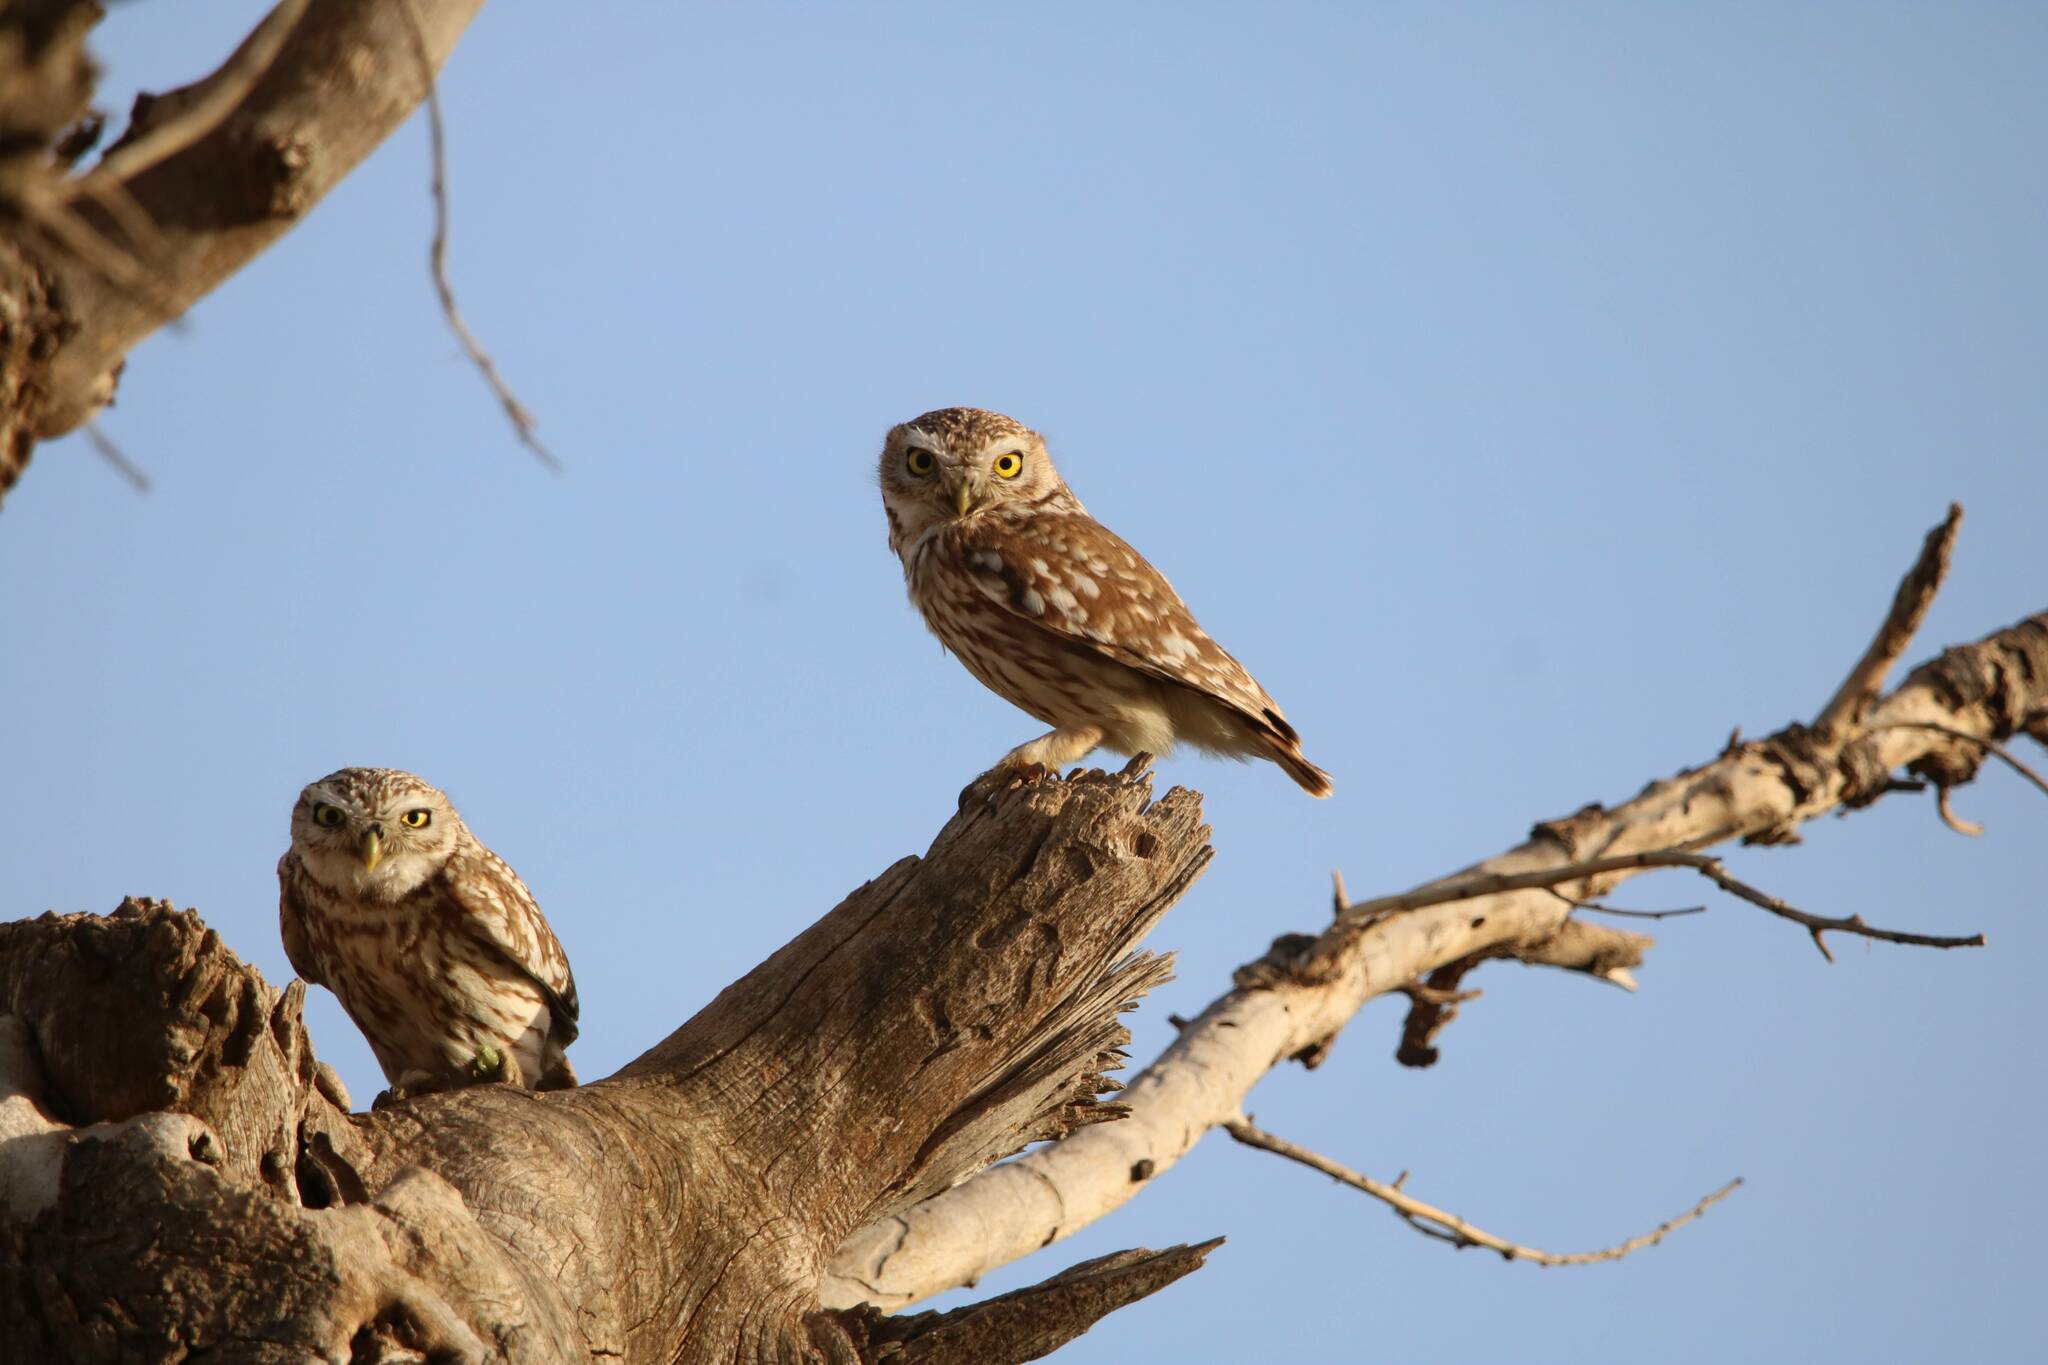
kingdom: Animalia
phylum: Chordata
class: Aves
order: Strigiformes
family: Strigidae
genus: Athene
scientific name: Athene noctua
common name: Little owl
